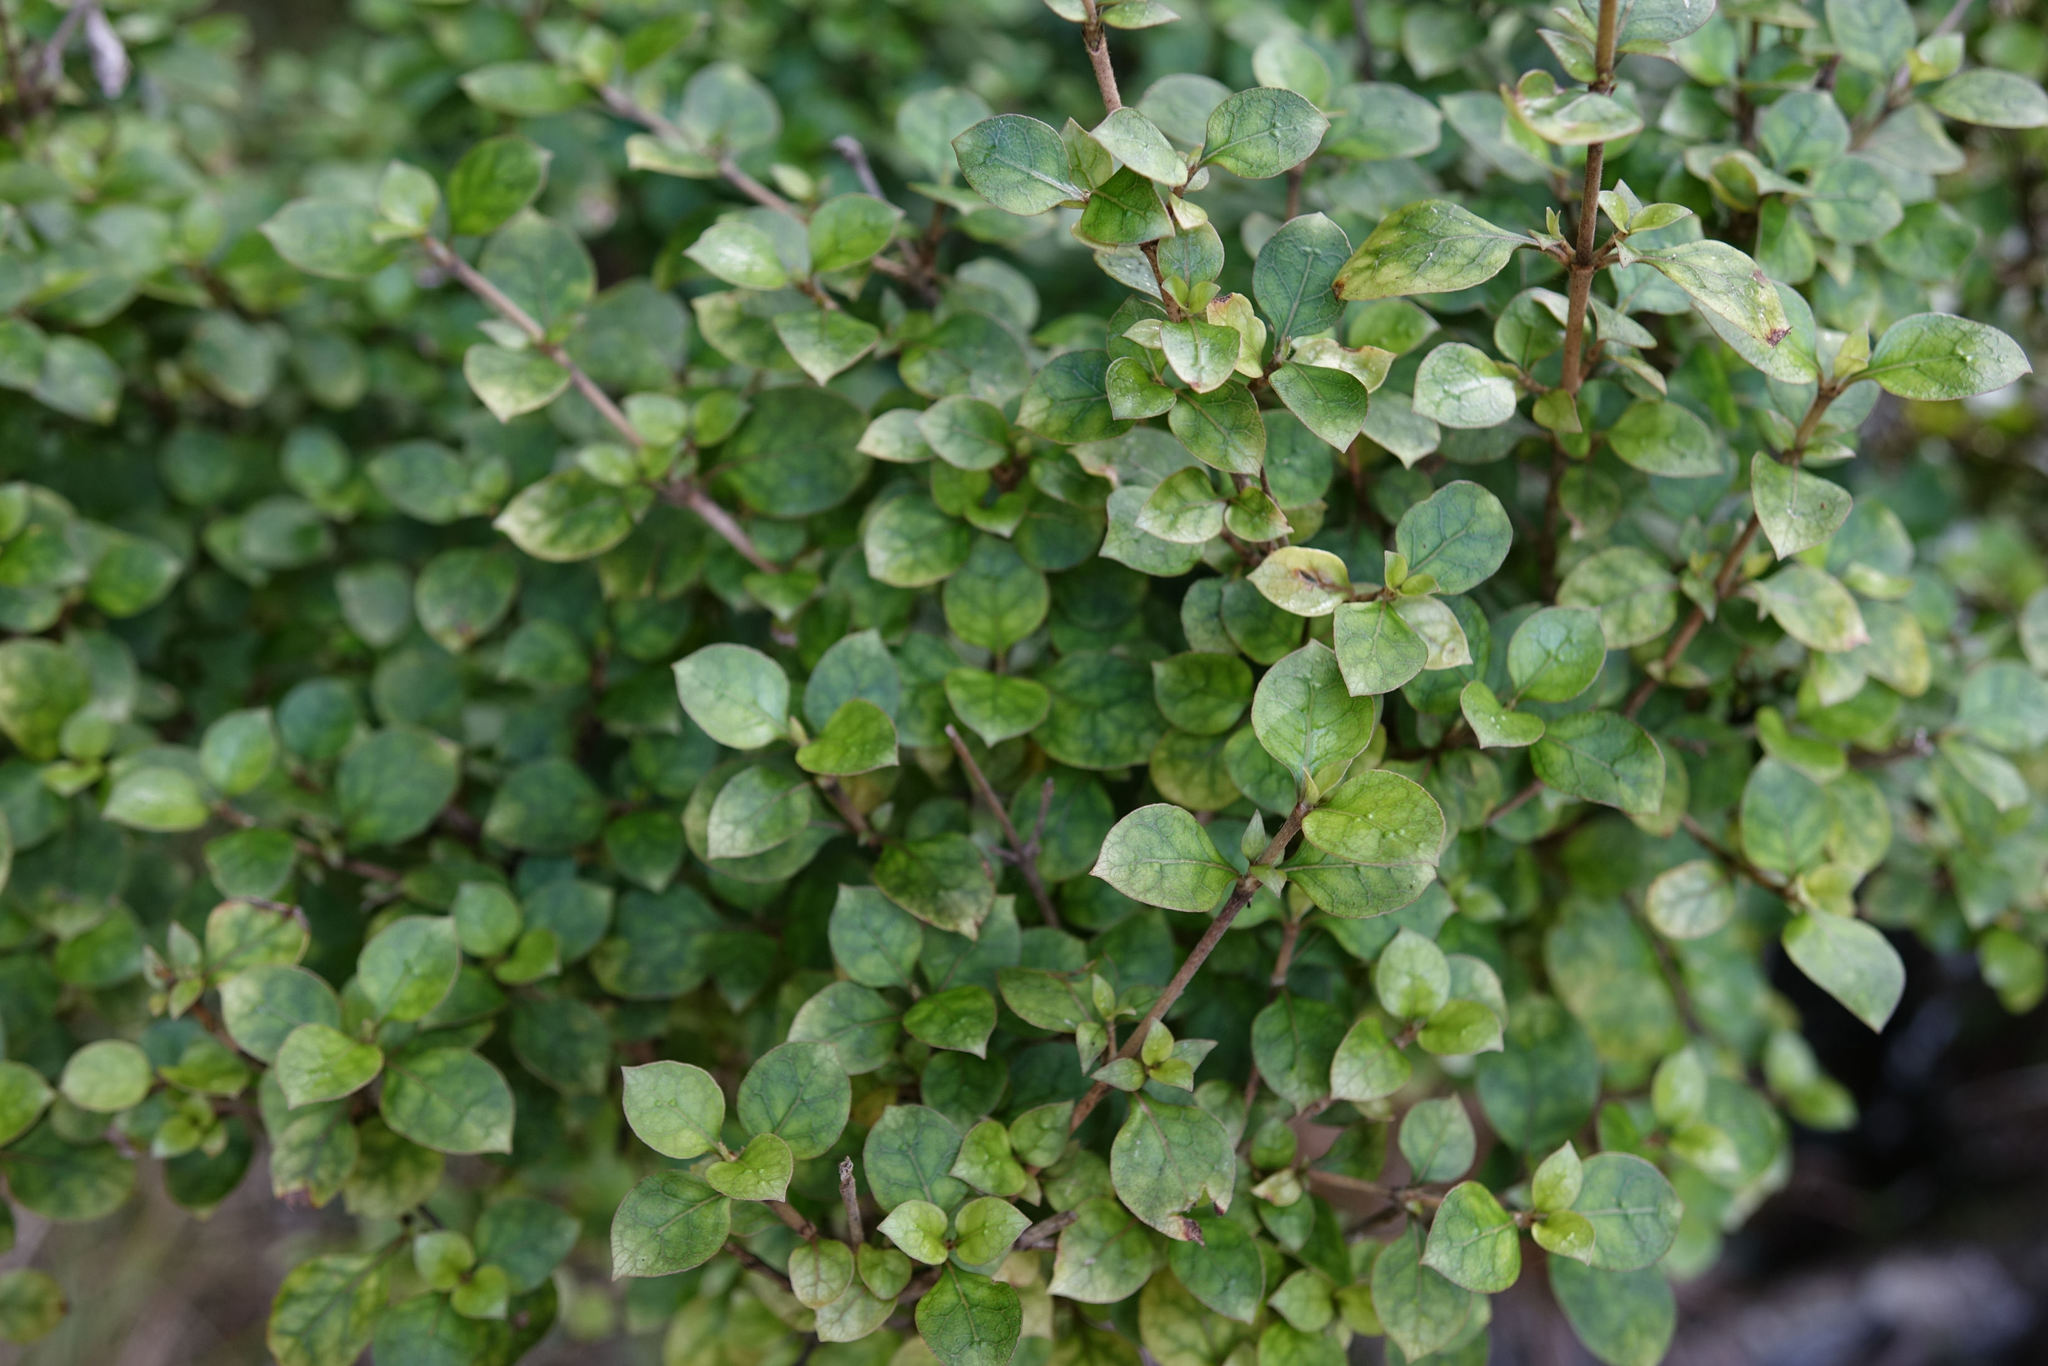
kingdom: Plantae
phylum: Tracheophyta
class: Magnoliopsida
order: Gentianales
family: Rubiaceae
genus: Coprosma
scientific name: Coprosma areolata
